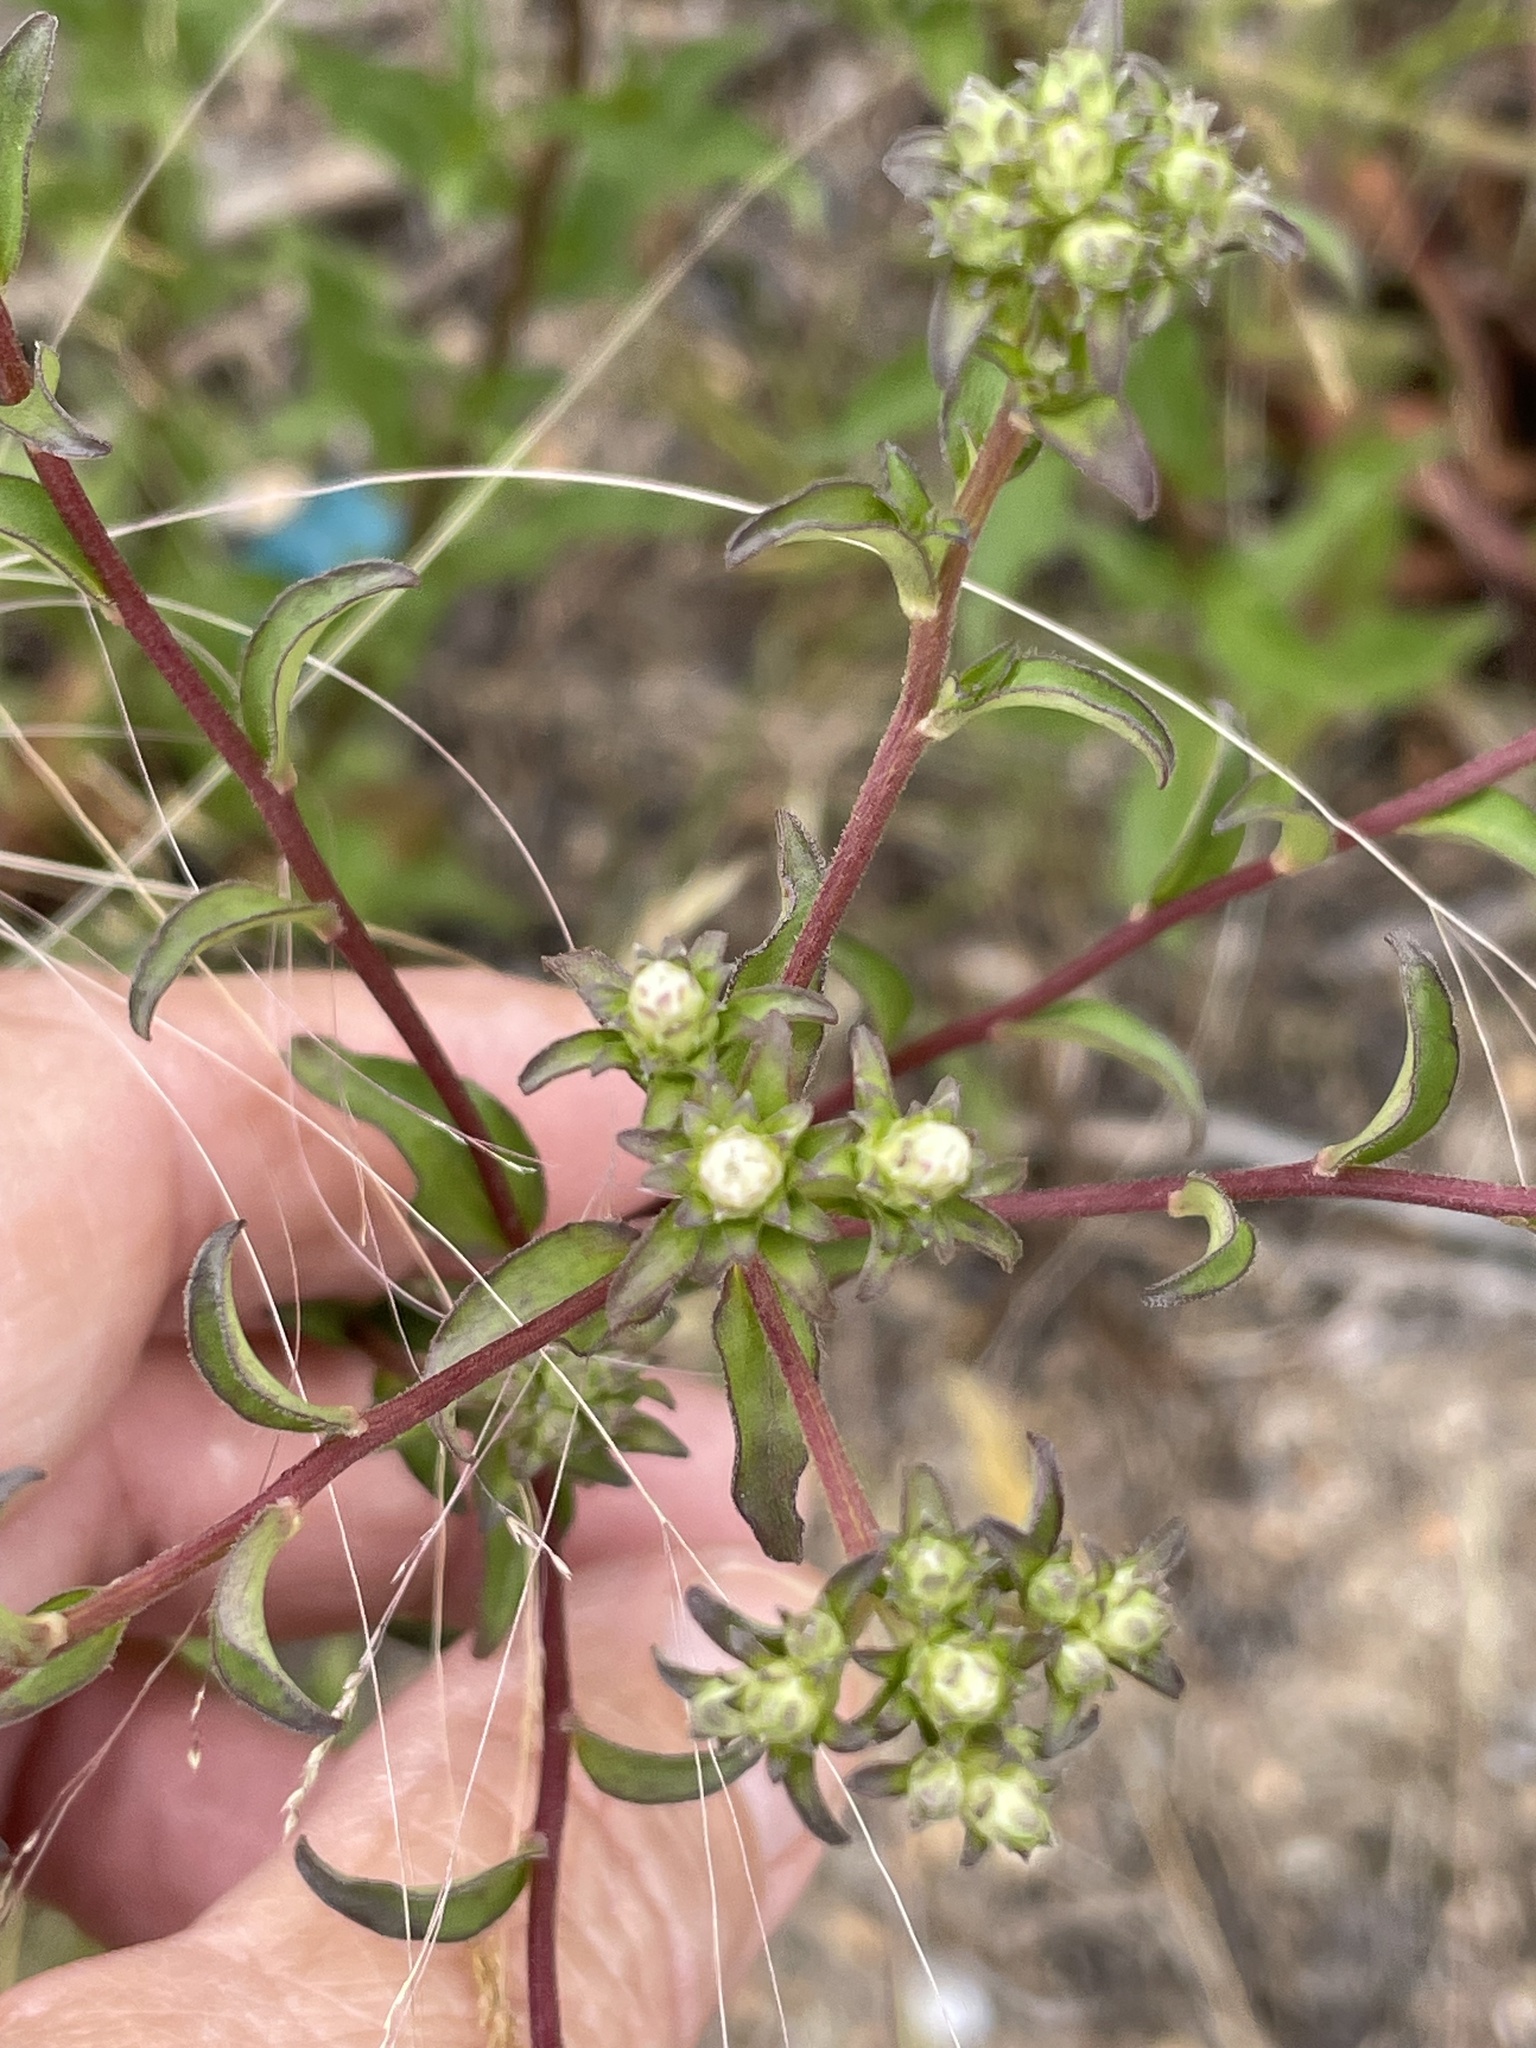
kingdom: Plantae
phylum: Tracheophyta
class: Magnoliopsida
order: Asterales
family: Asteraceae
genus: Sericocarpus
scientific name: Sericocarpus asteroides
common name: Toothed white-top aster
